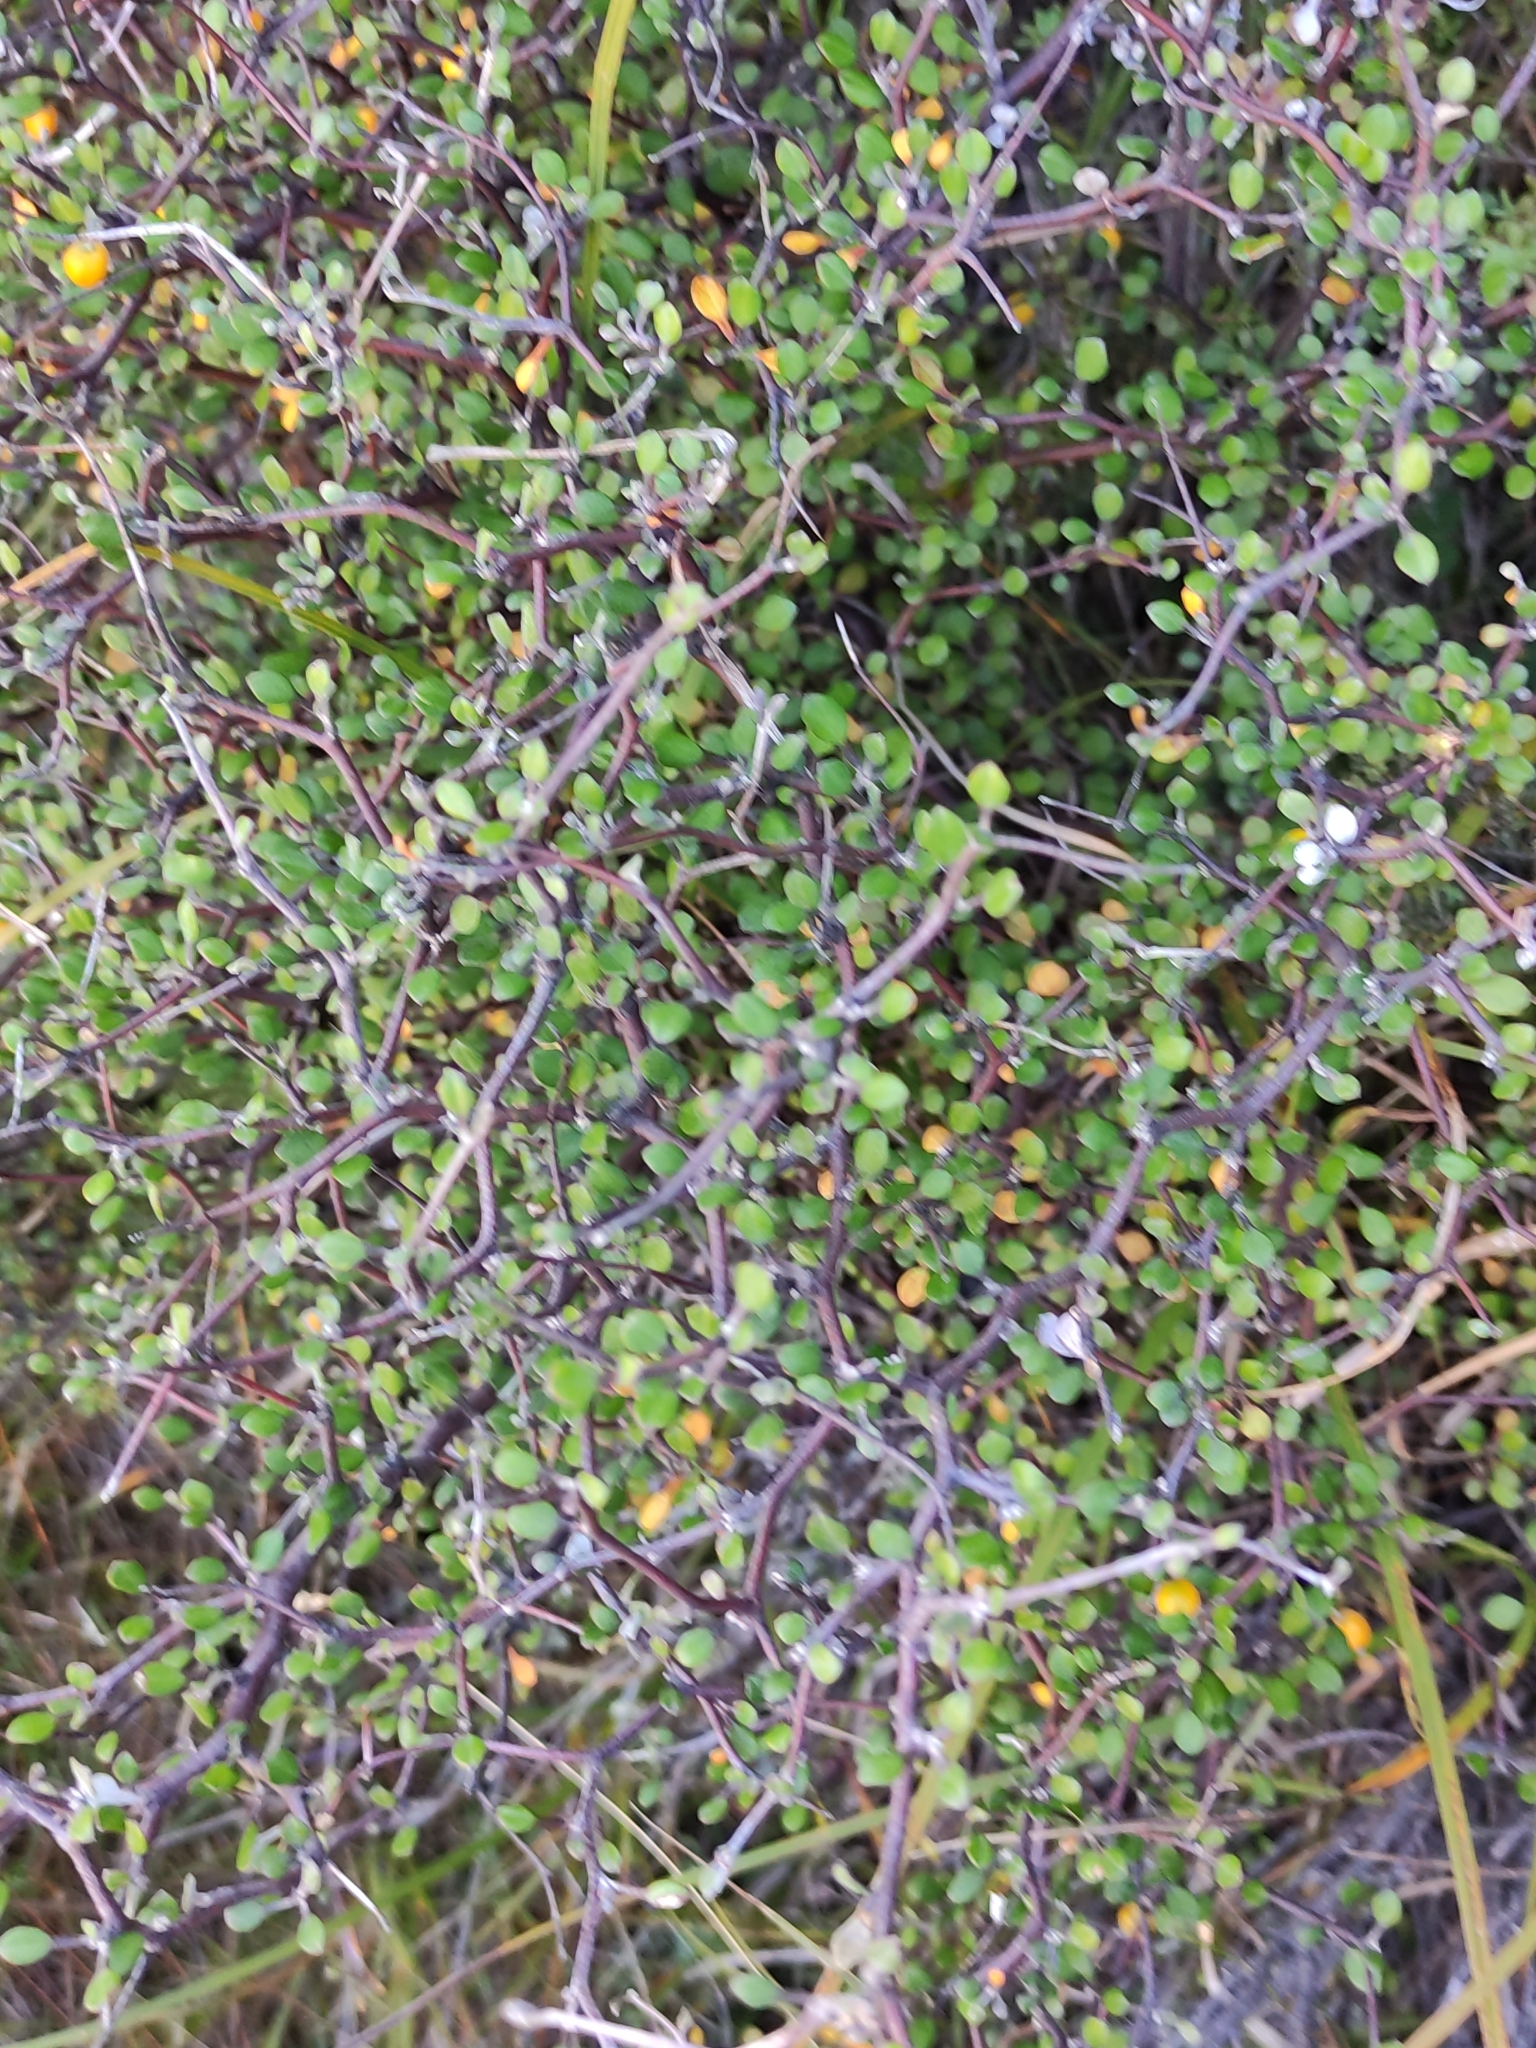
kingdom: Plantae
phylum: Tracheophyta
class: Magnoliopsida
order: Asterales
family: Argophyllaceae
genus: Corokia
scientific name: Corokia cotoneaster
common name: Wire nettingbush
